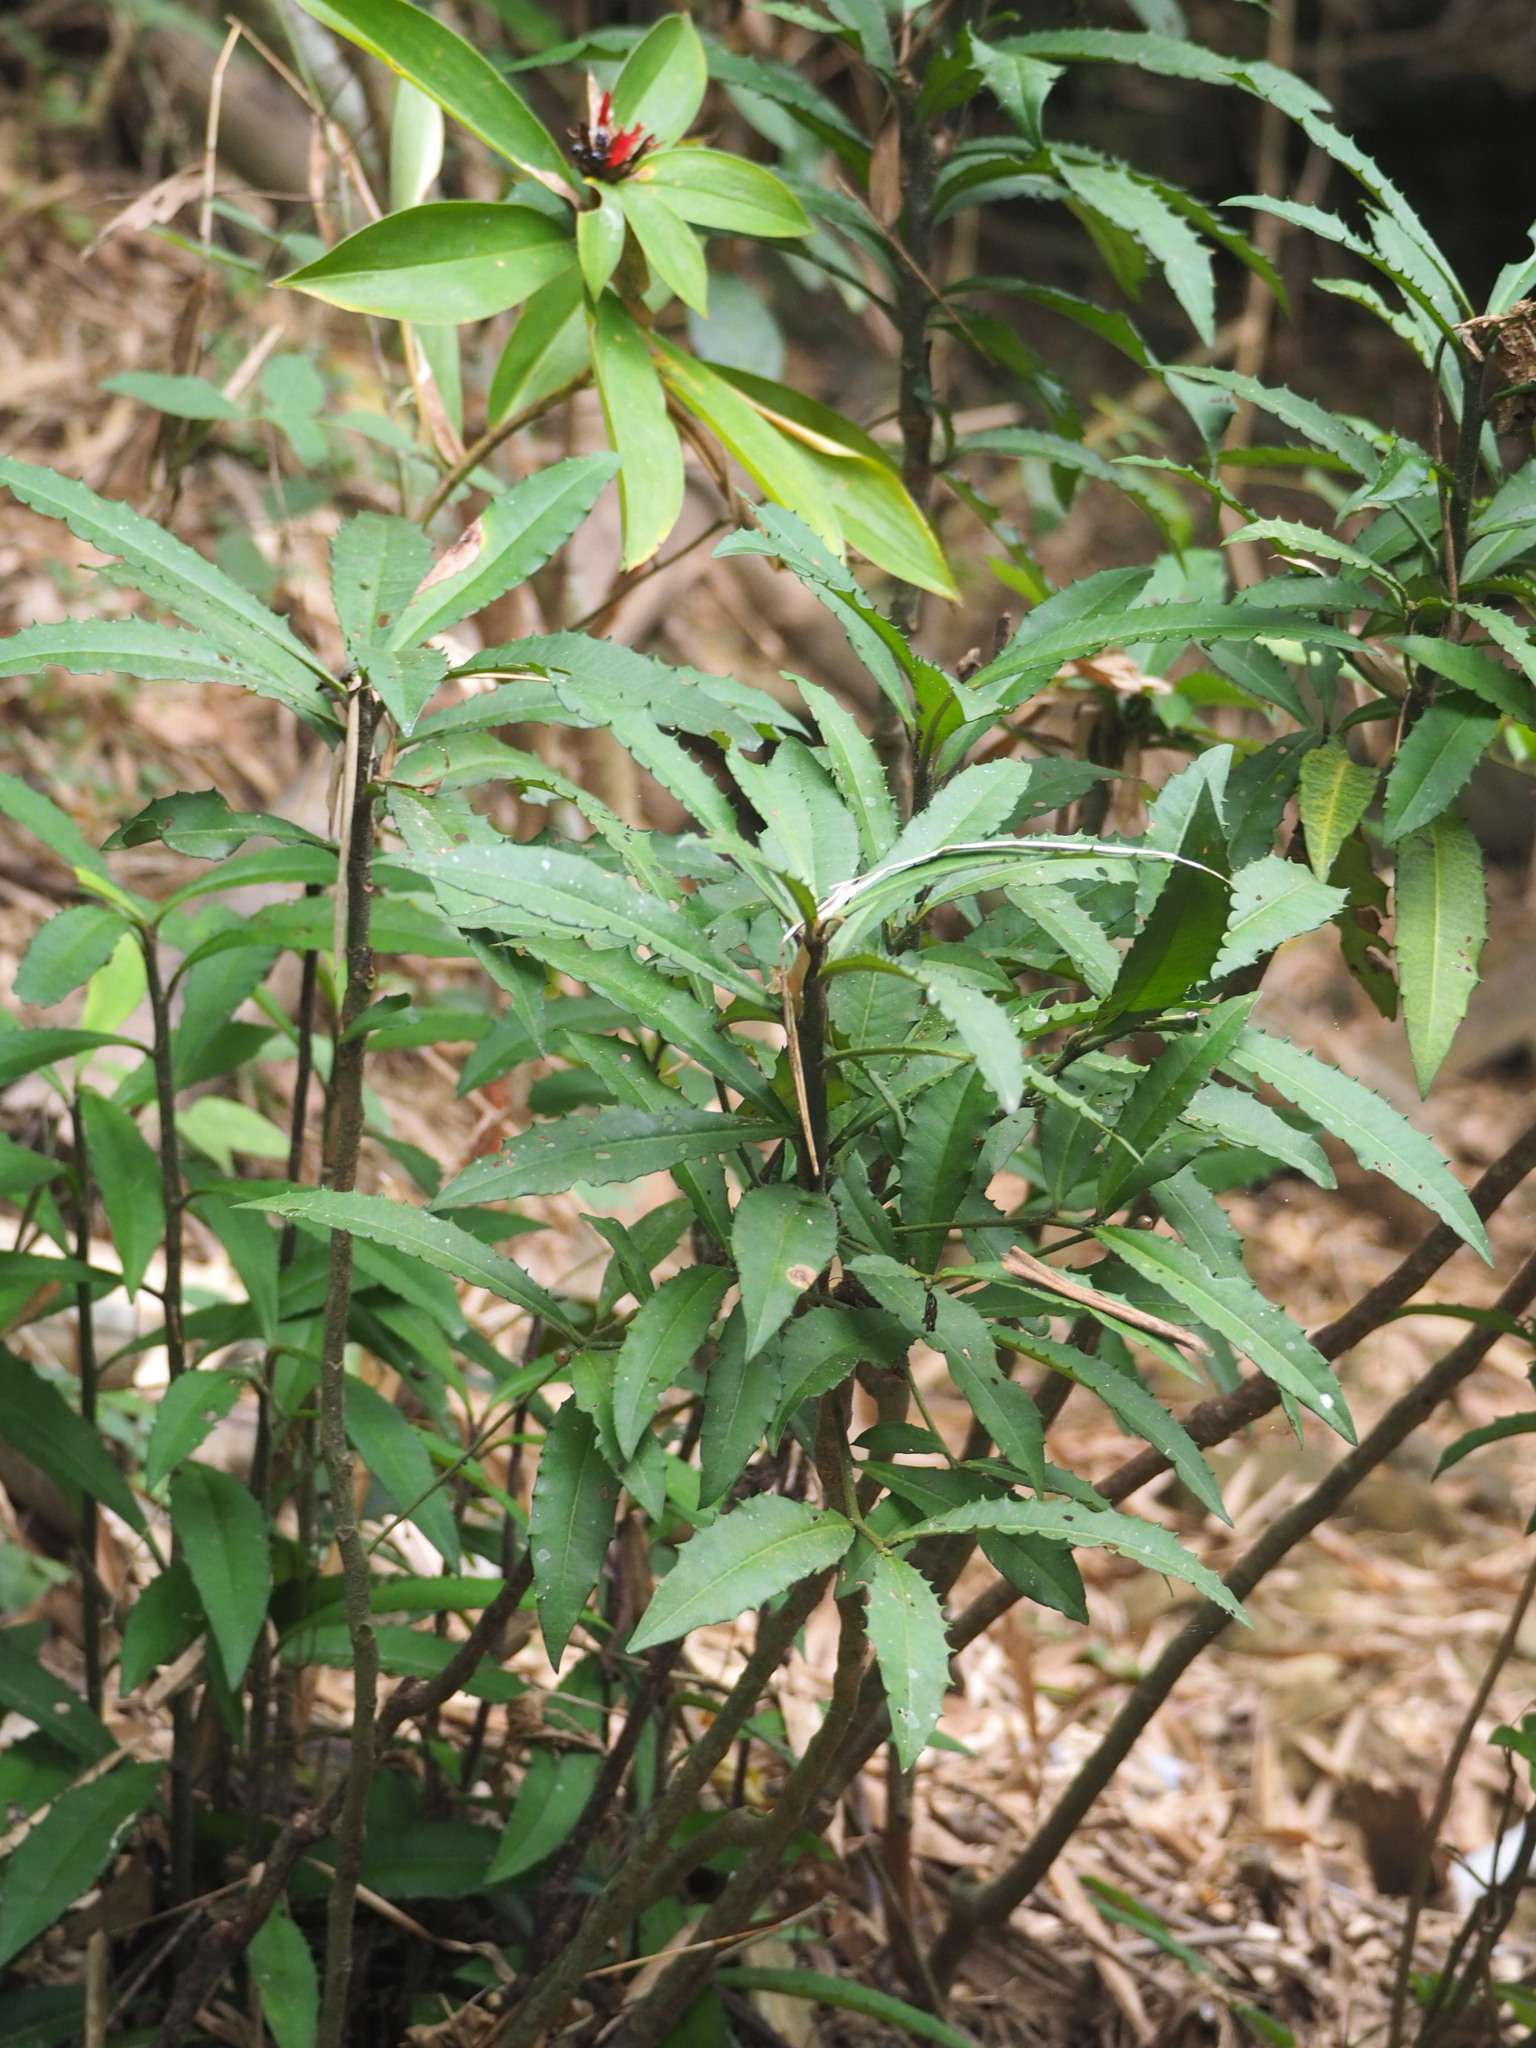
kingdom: Plantae
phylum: Tracheophyta
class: Magnoliopsida
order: Ericales
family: Primulaceae
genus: Ardisia
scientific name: Ardisia cornudentata
